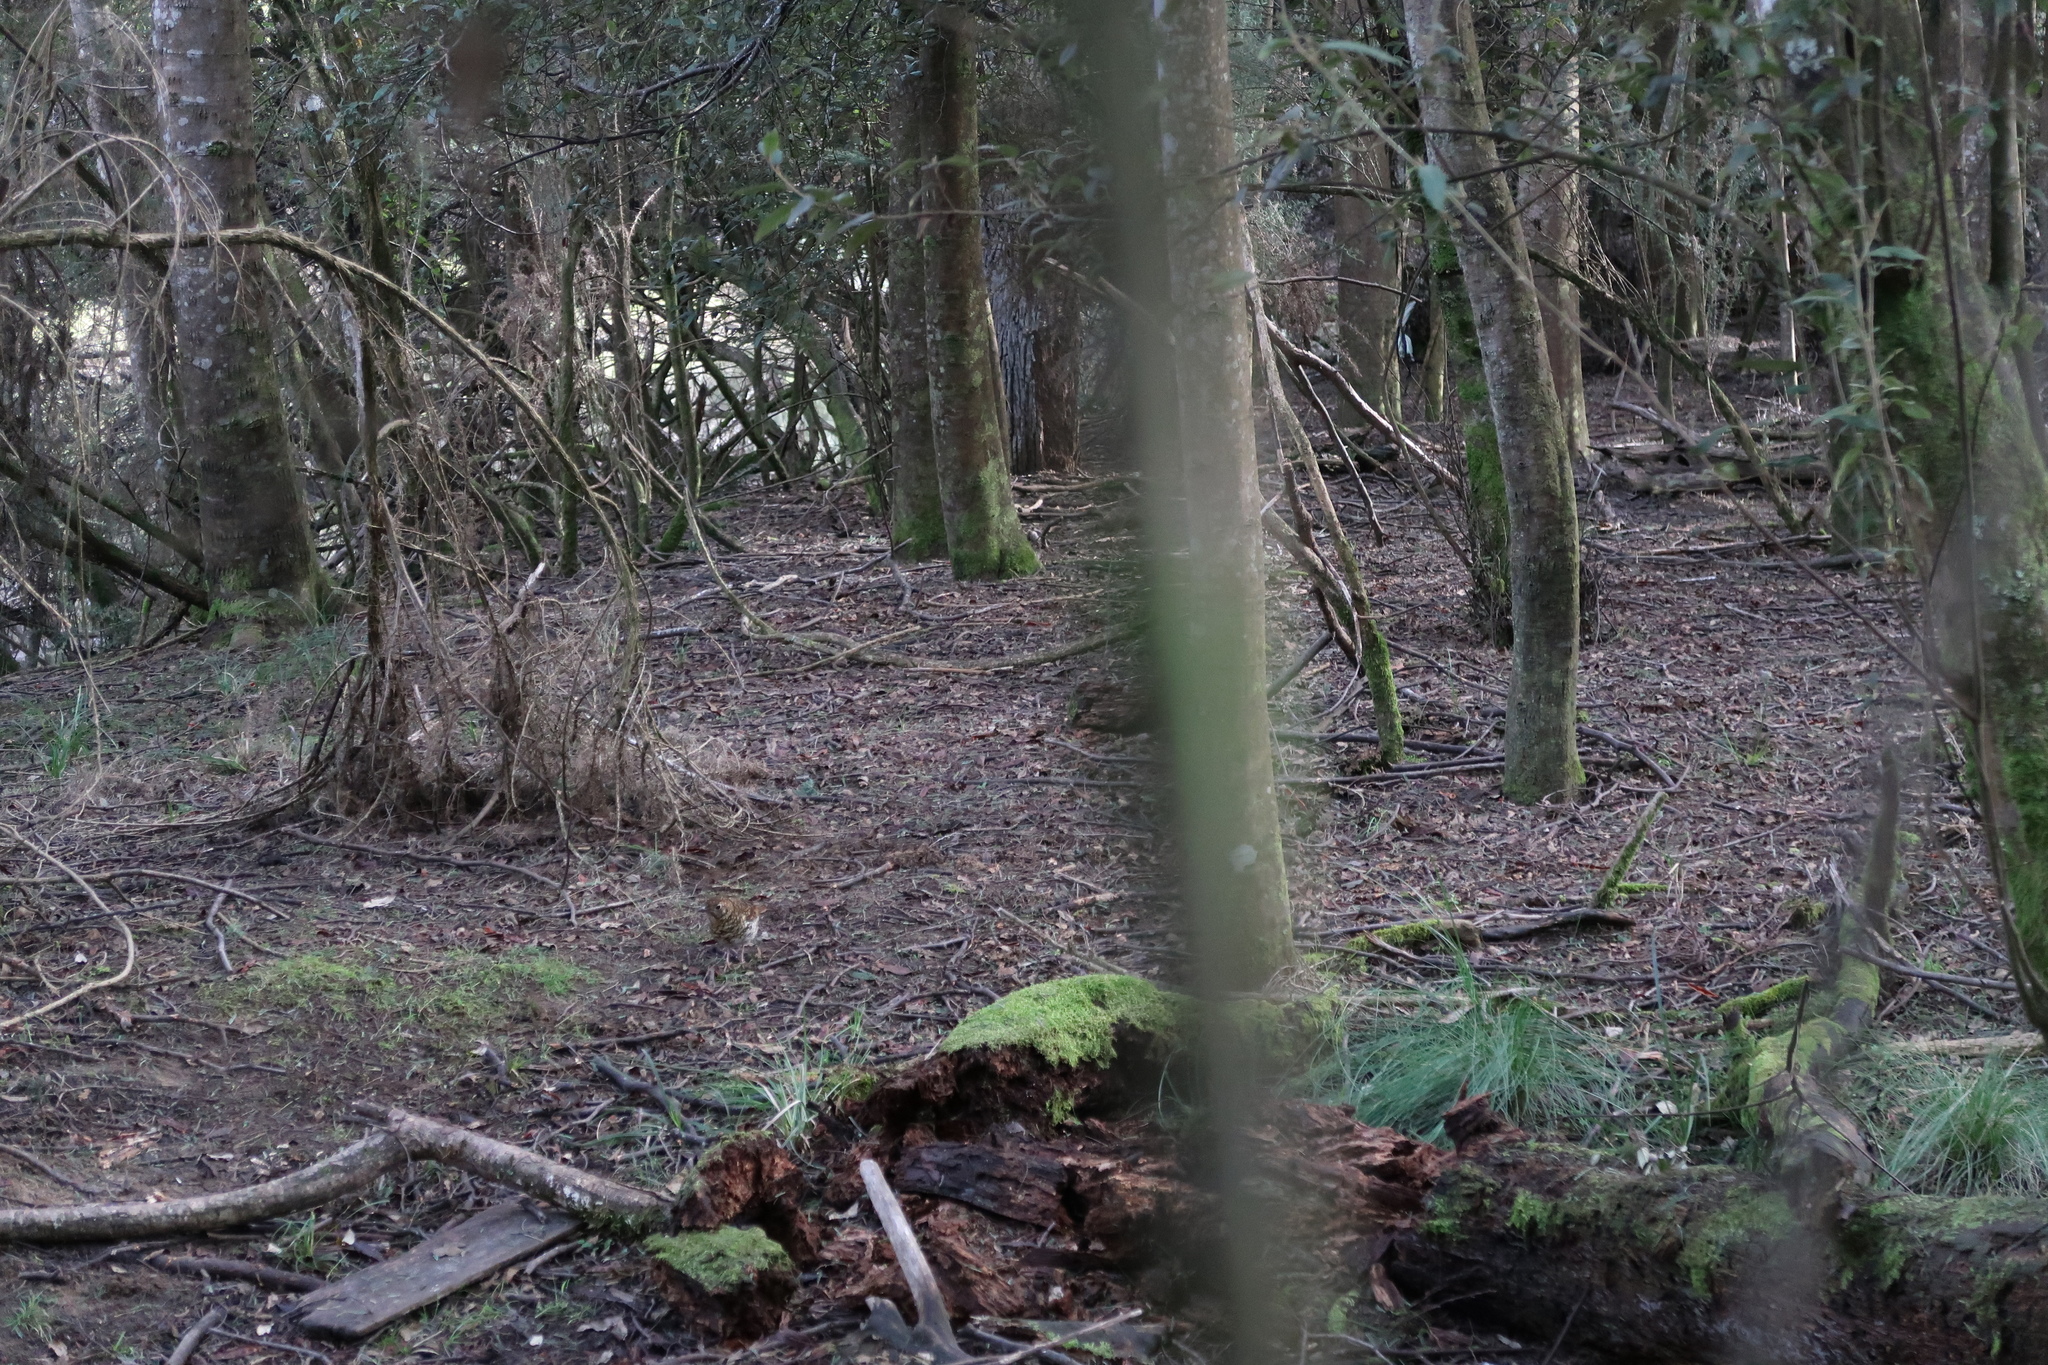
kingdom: Animalia
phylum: Chordata
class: Aves
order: Passeriformes
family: Turdidae
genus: Zoothera
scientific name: Zoothera lunulata
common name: Bassian thrush
